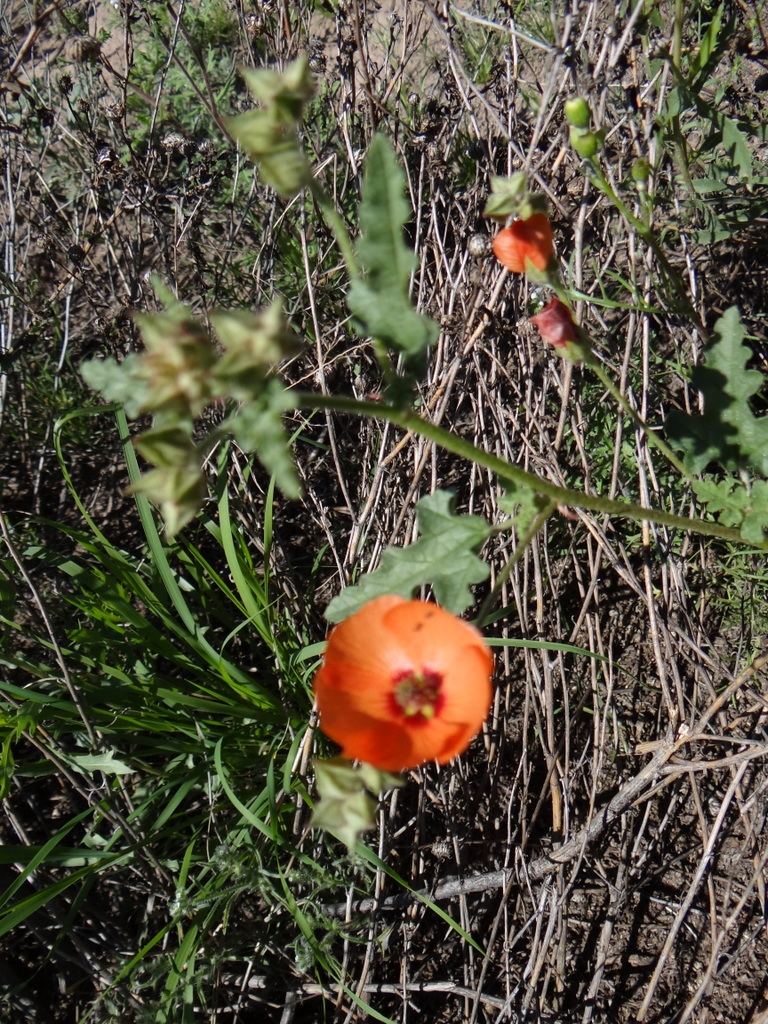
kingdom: Plantae
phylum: Tracheophyta
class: Magnoliopsida
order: Malvales
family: Malvaceae
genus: Sphaeralcea
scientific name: Sphaeralcea miniata
